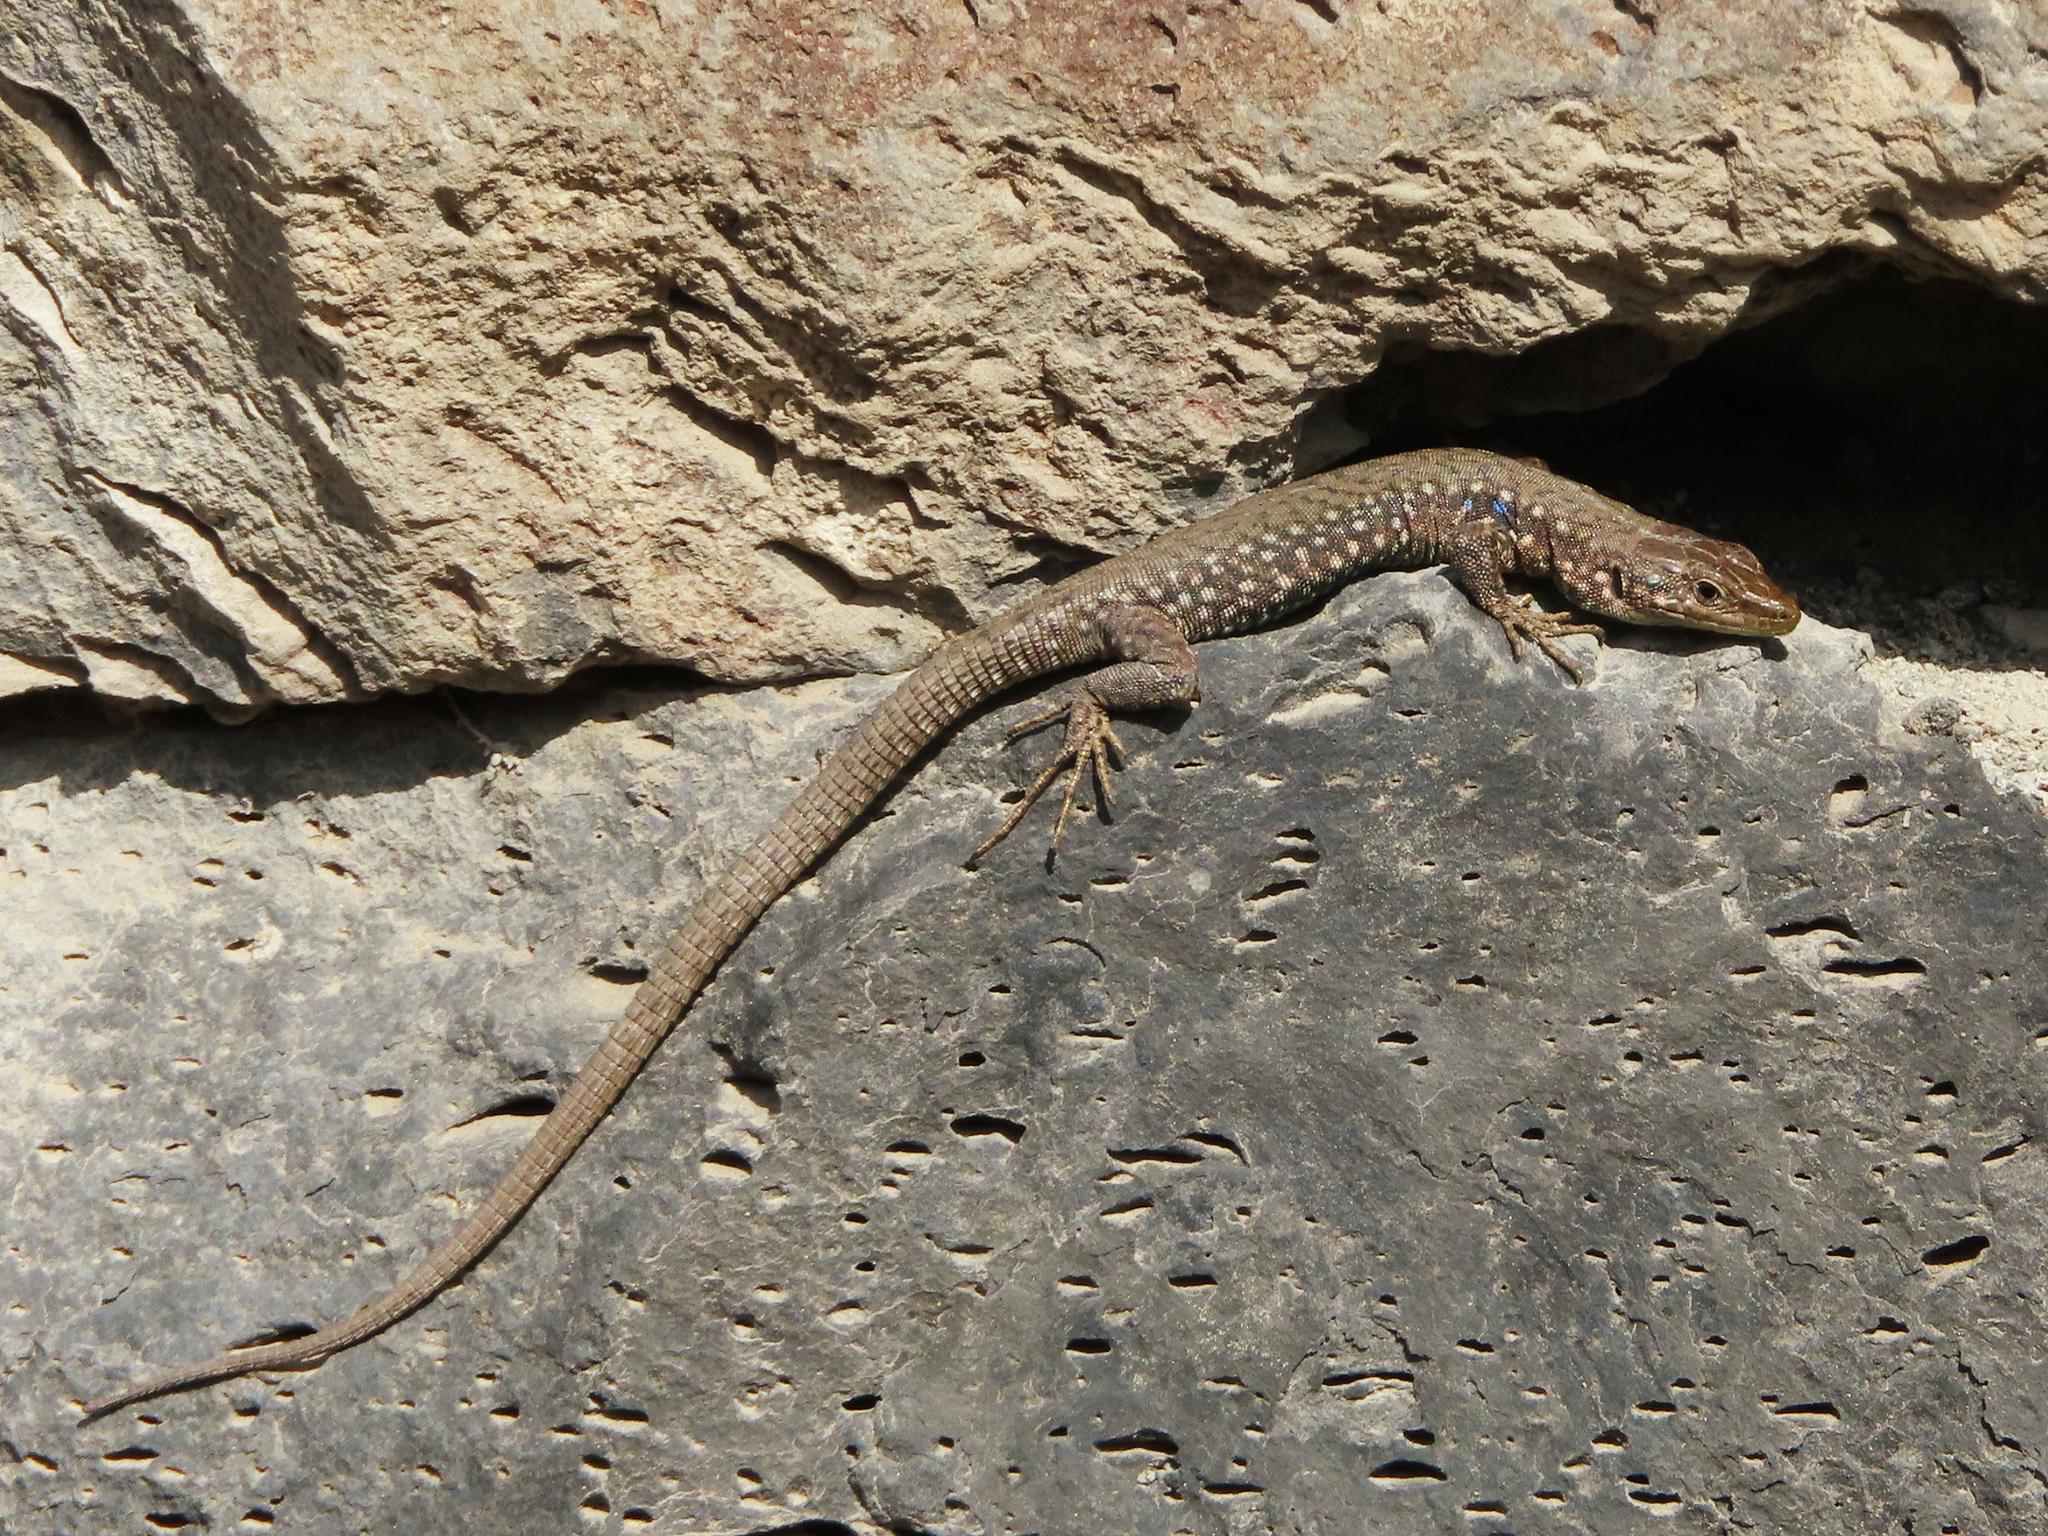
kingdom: Animalia
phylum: Chordata
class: Squamata
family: Lacertidae
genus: Darevskia
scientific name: Darevskia
